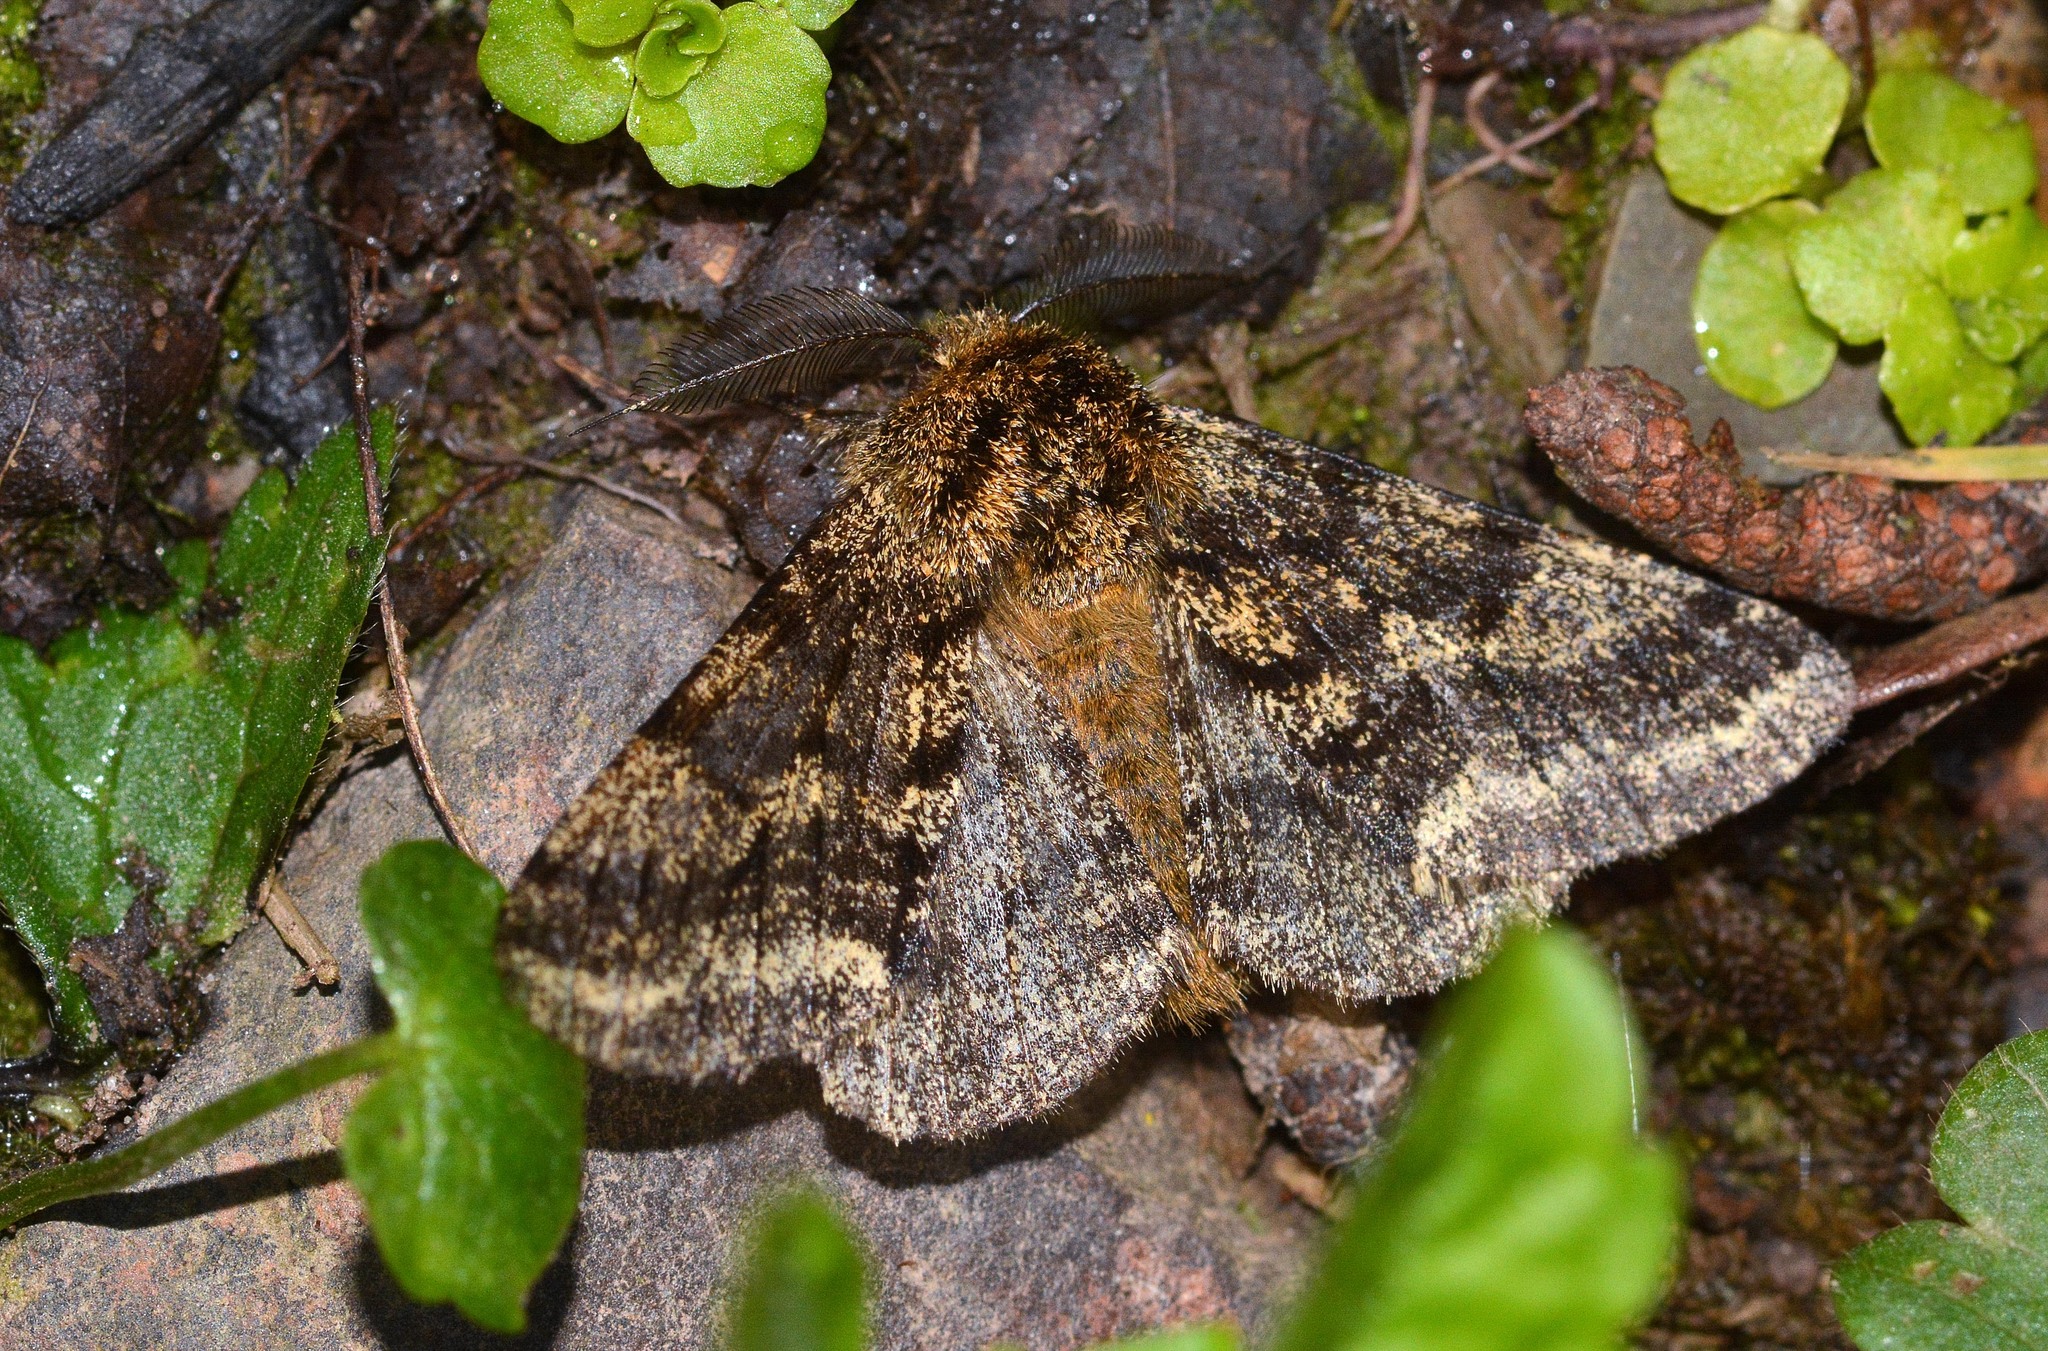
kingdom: Animalia
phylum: Arthropoda
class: Insecta
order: Lepidoptera
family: Geometridae
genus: Lycia
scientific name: Lycia hirtaria
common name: Brindled beauty
